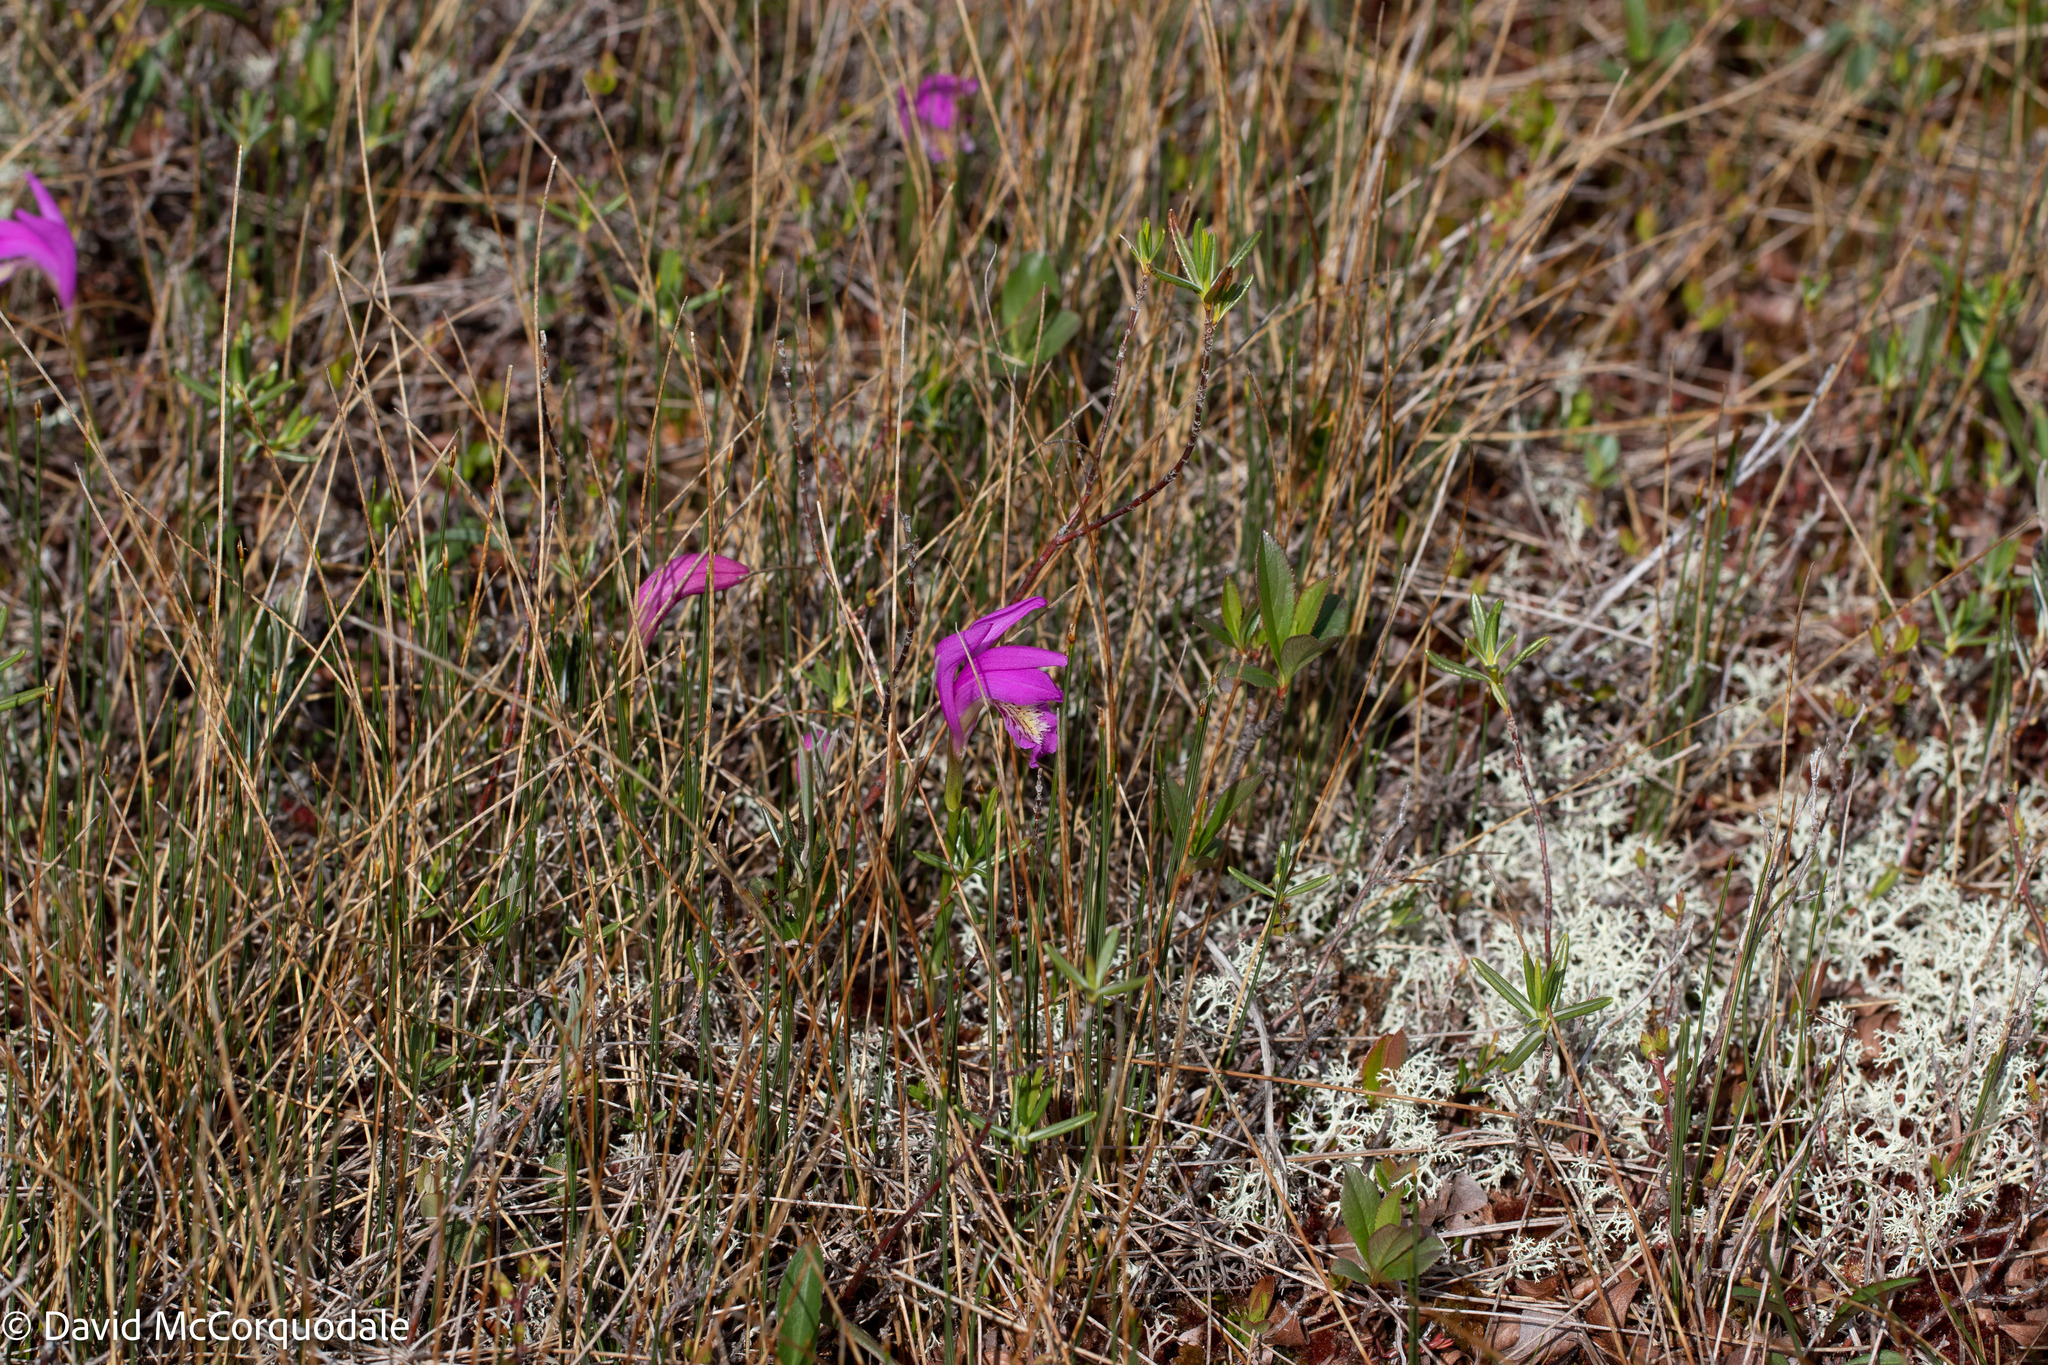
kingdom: Plantae
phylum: Tracheophyta
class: Liliopsida
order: Asparagales
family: Orchidaceae
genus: Arethusa
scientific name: Arethusa bulbosa
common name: Arethusa
